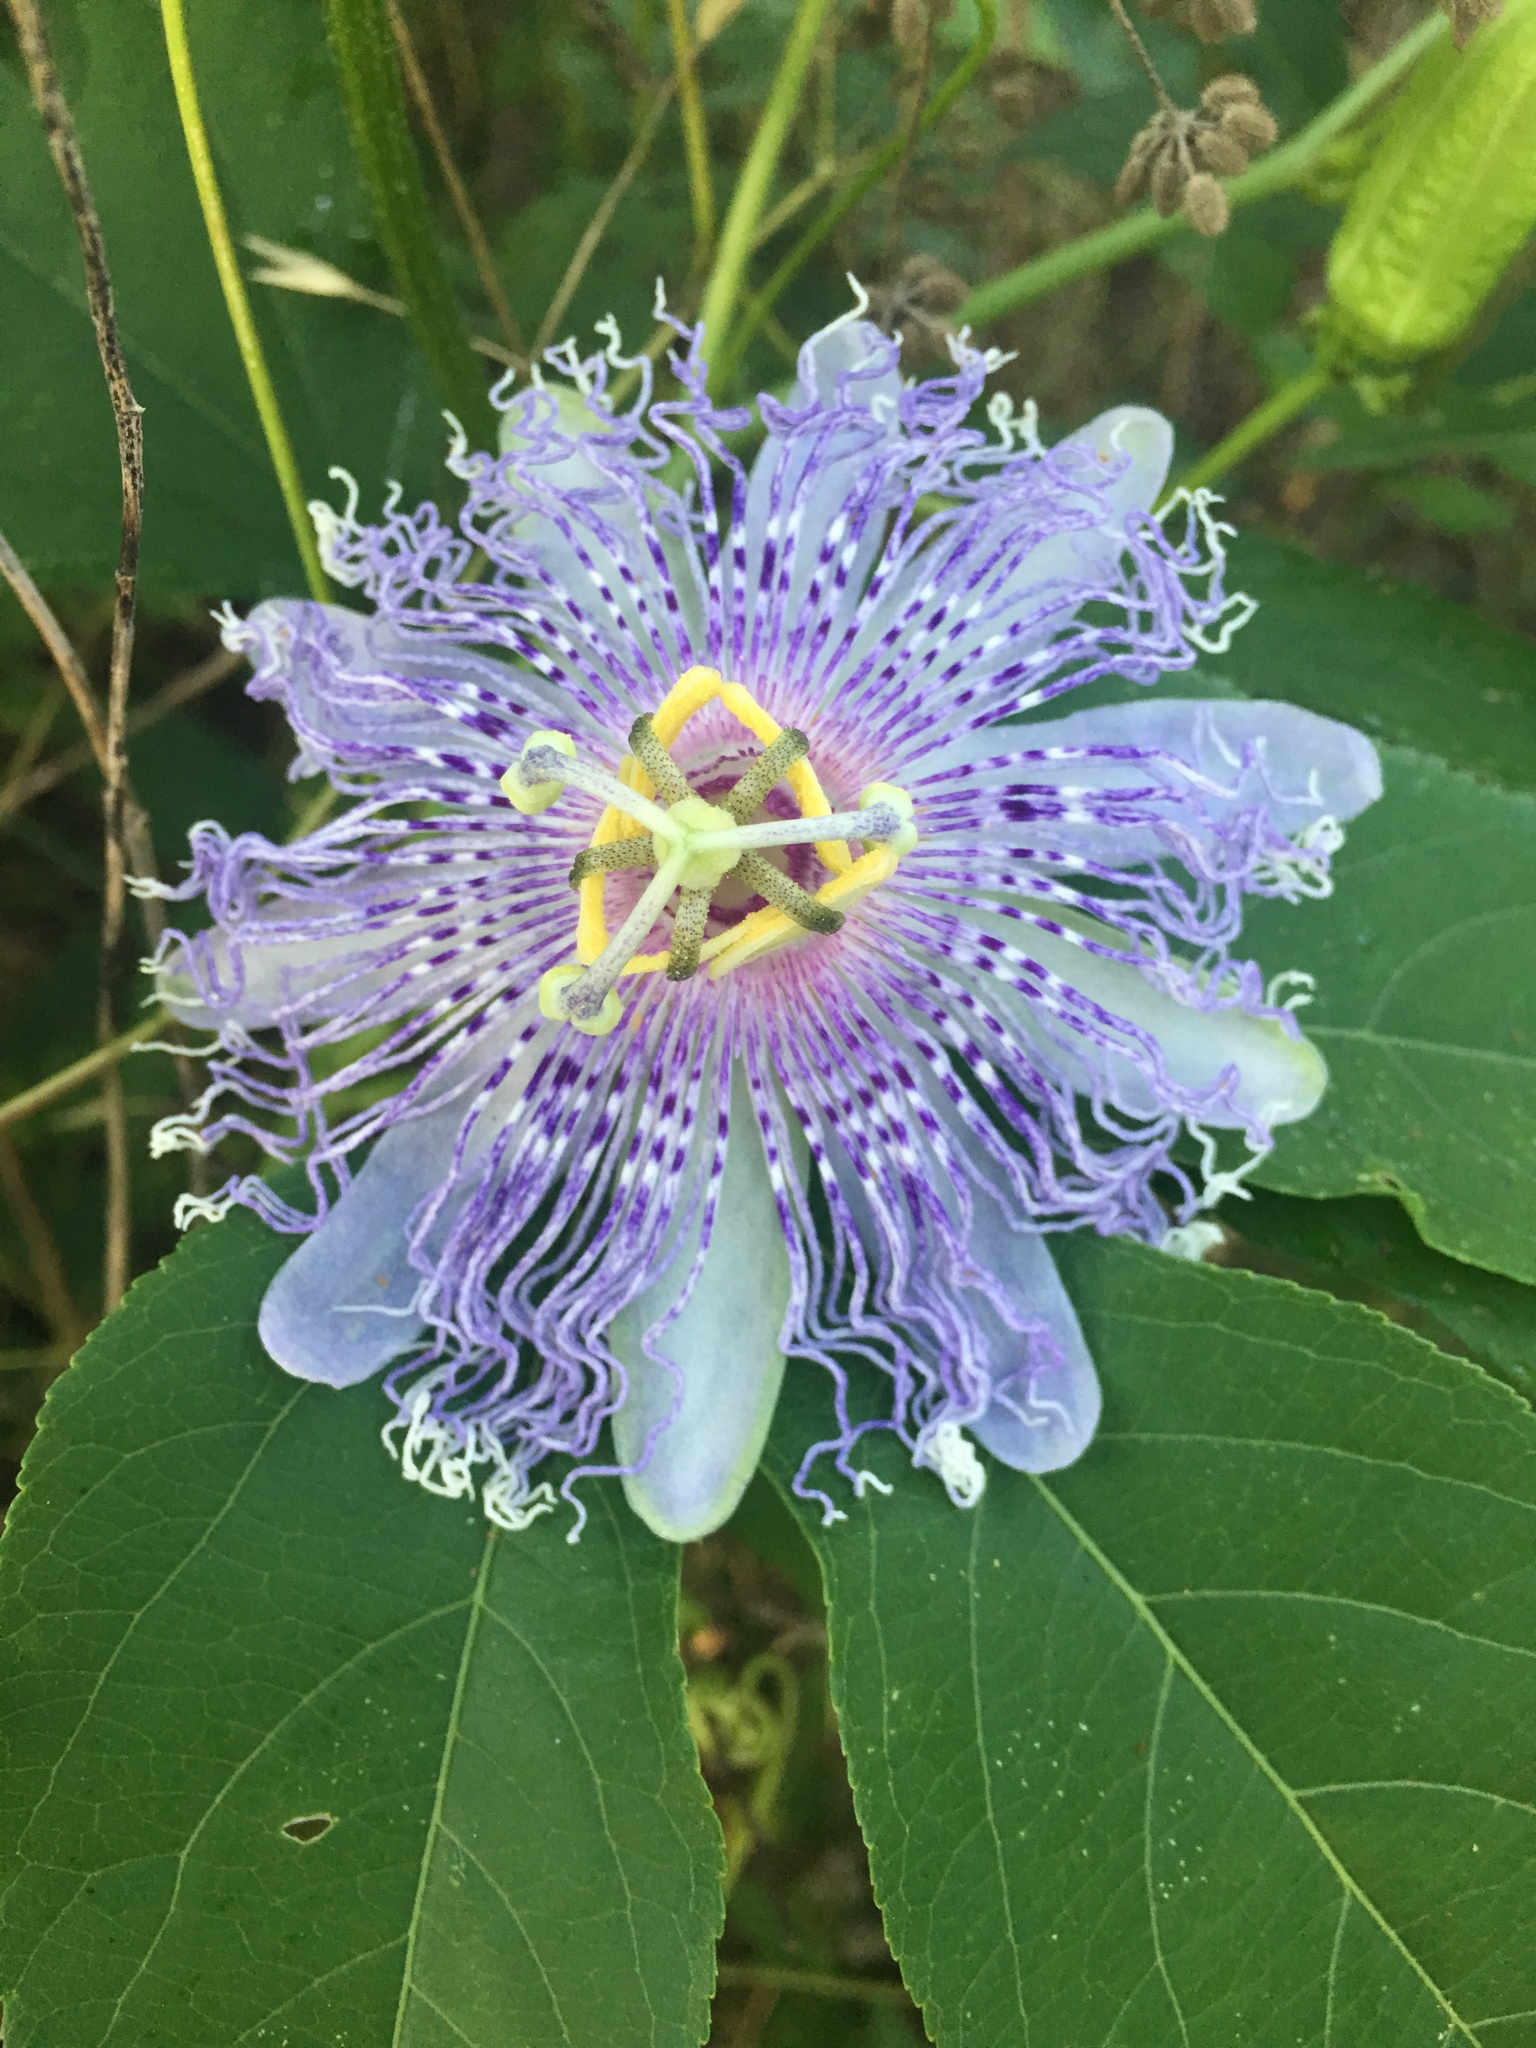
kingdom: Plantae
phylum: Tracheophyta
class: Magnoliopsida
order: Malpighiales
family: Passifloraceae
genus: Passiflora
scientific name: Passiflora incarnata
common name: Apricot-vine
